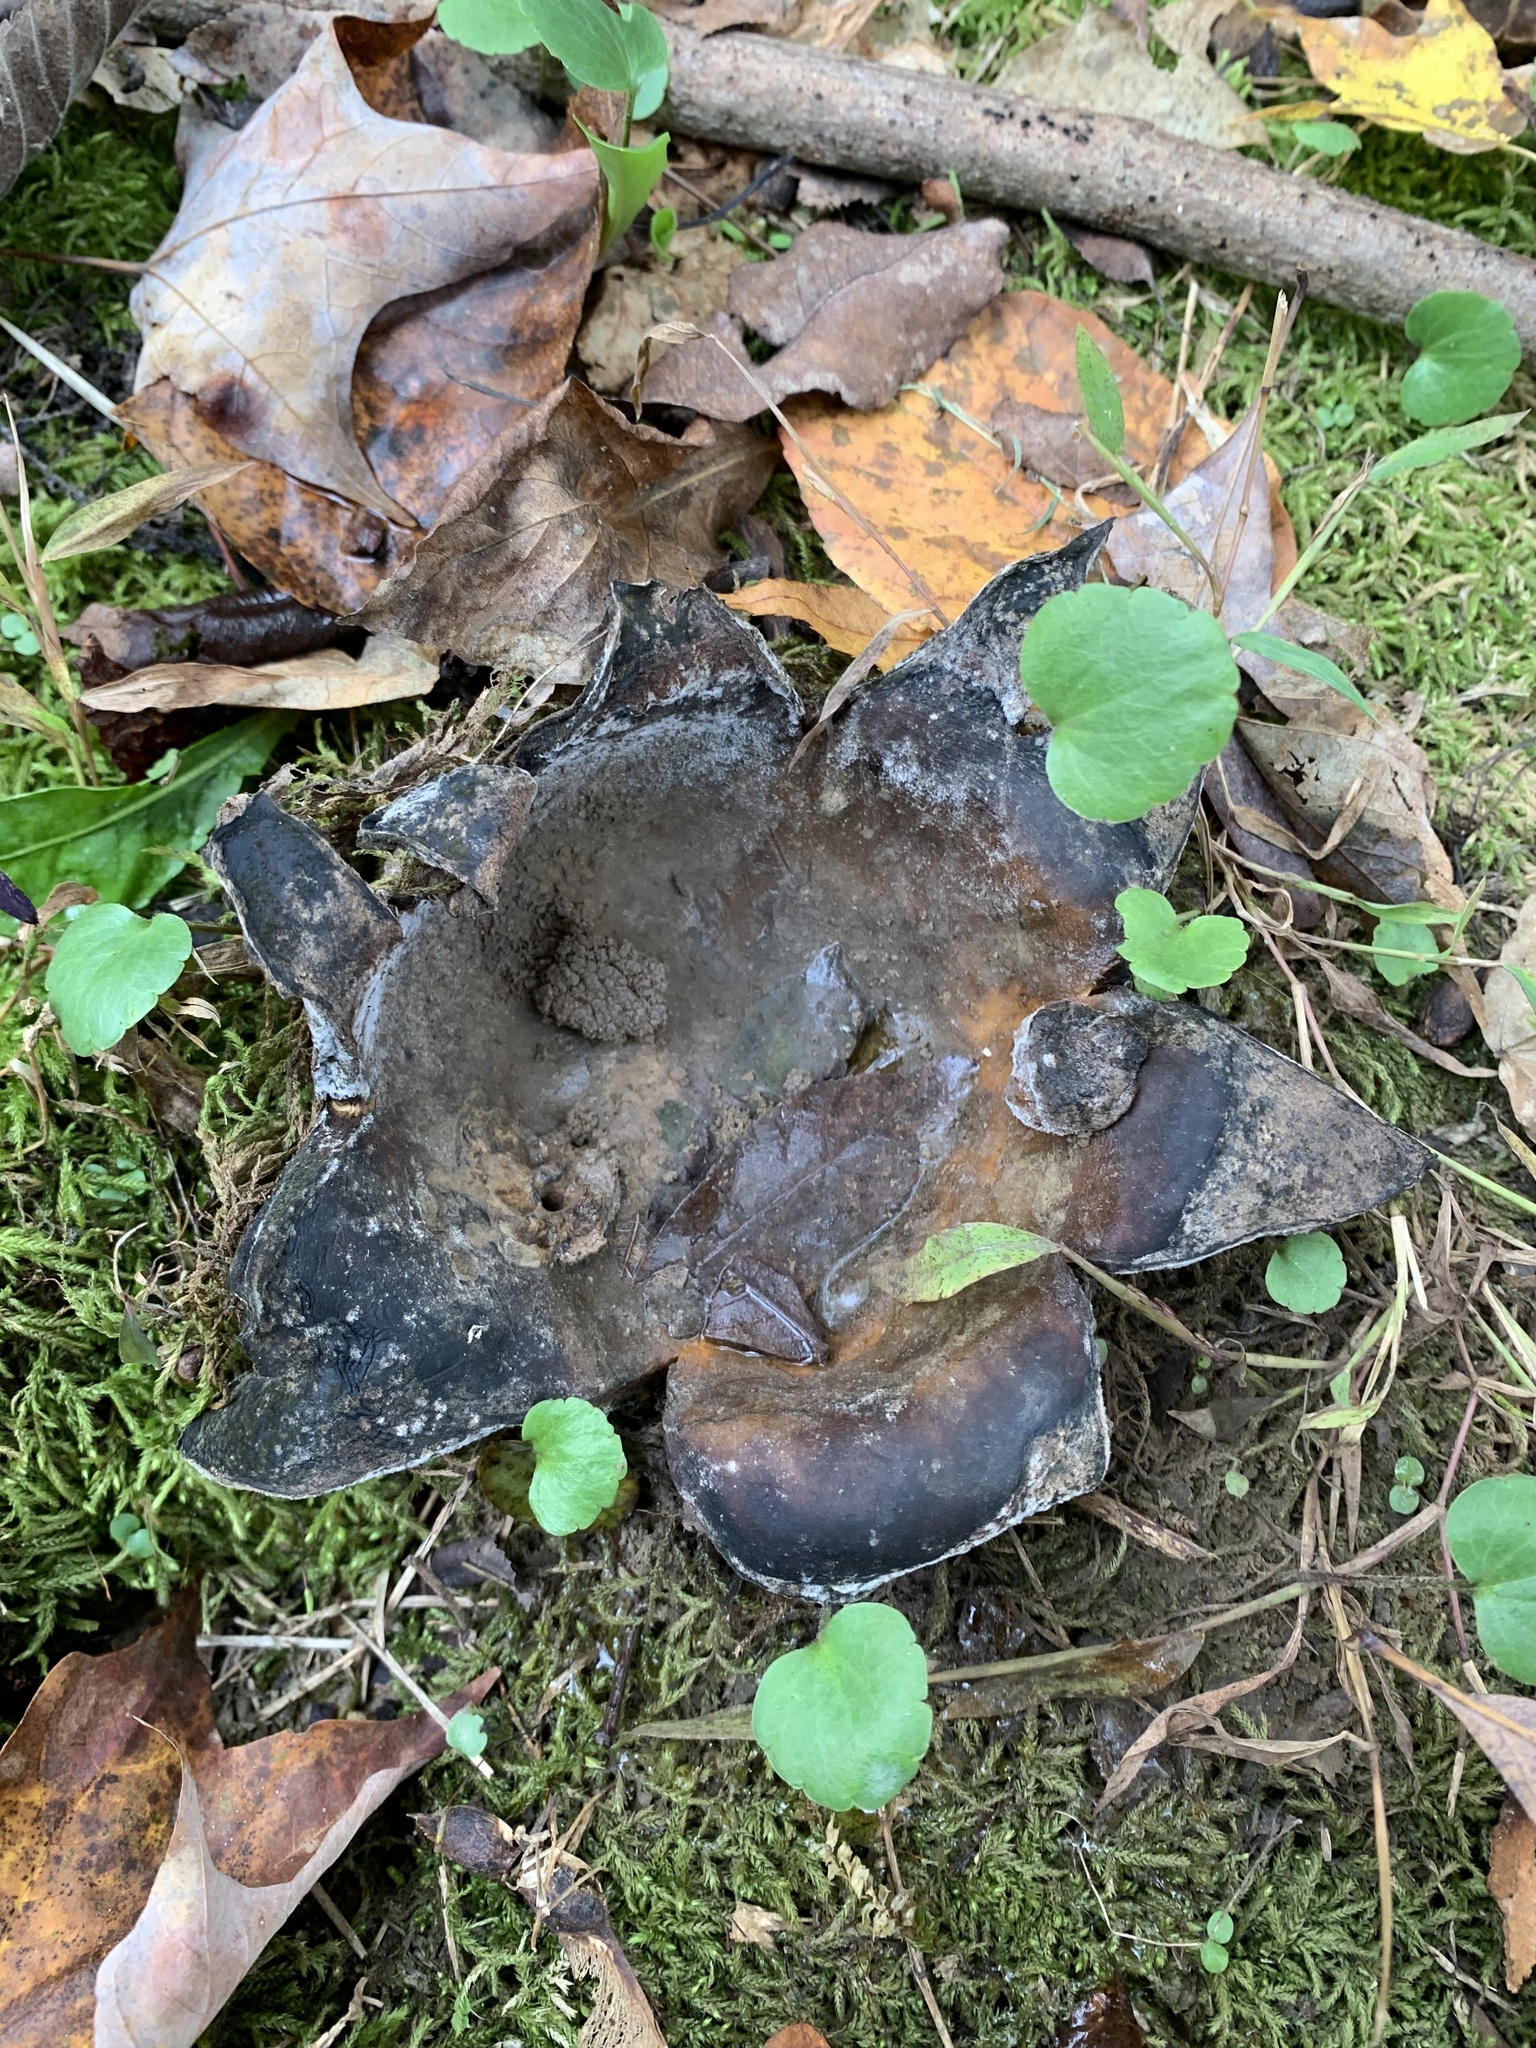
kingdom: Fungi
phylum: Basidiomycota
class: Agaricomycetes
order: Boletales
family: Sclerodermataceae
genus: Scleroderma
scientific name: Scleroderma polyrhizum
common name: Many-rooted earthball
